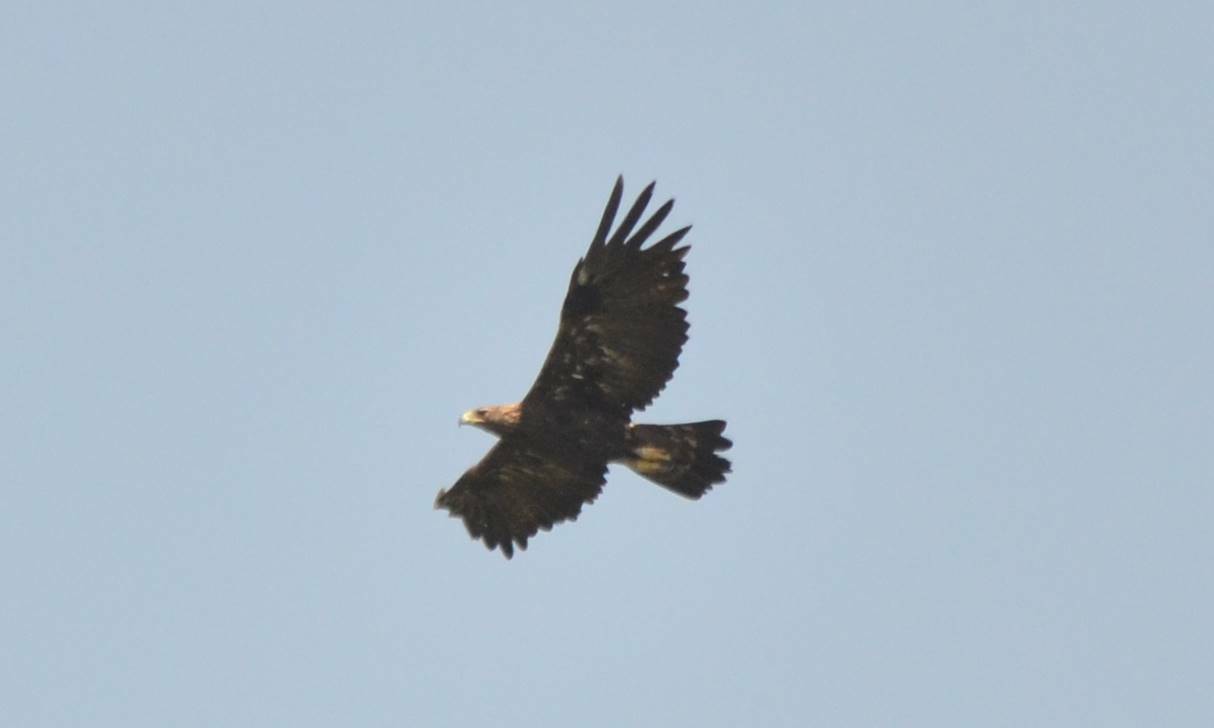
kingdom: Animalia
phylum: Chordata
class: Aves
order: Accipitriformes
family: Accipitridae
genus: Aquila
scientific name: Aquila chrysaetos
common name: Golden eagle
